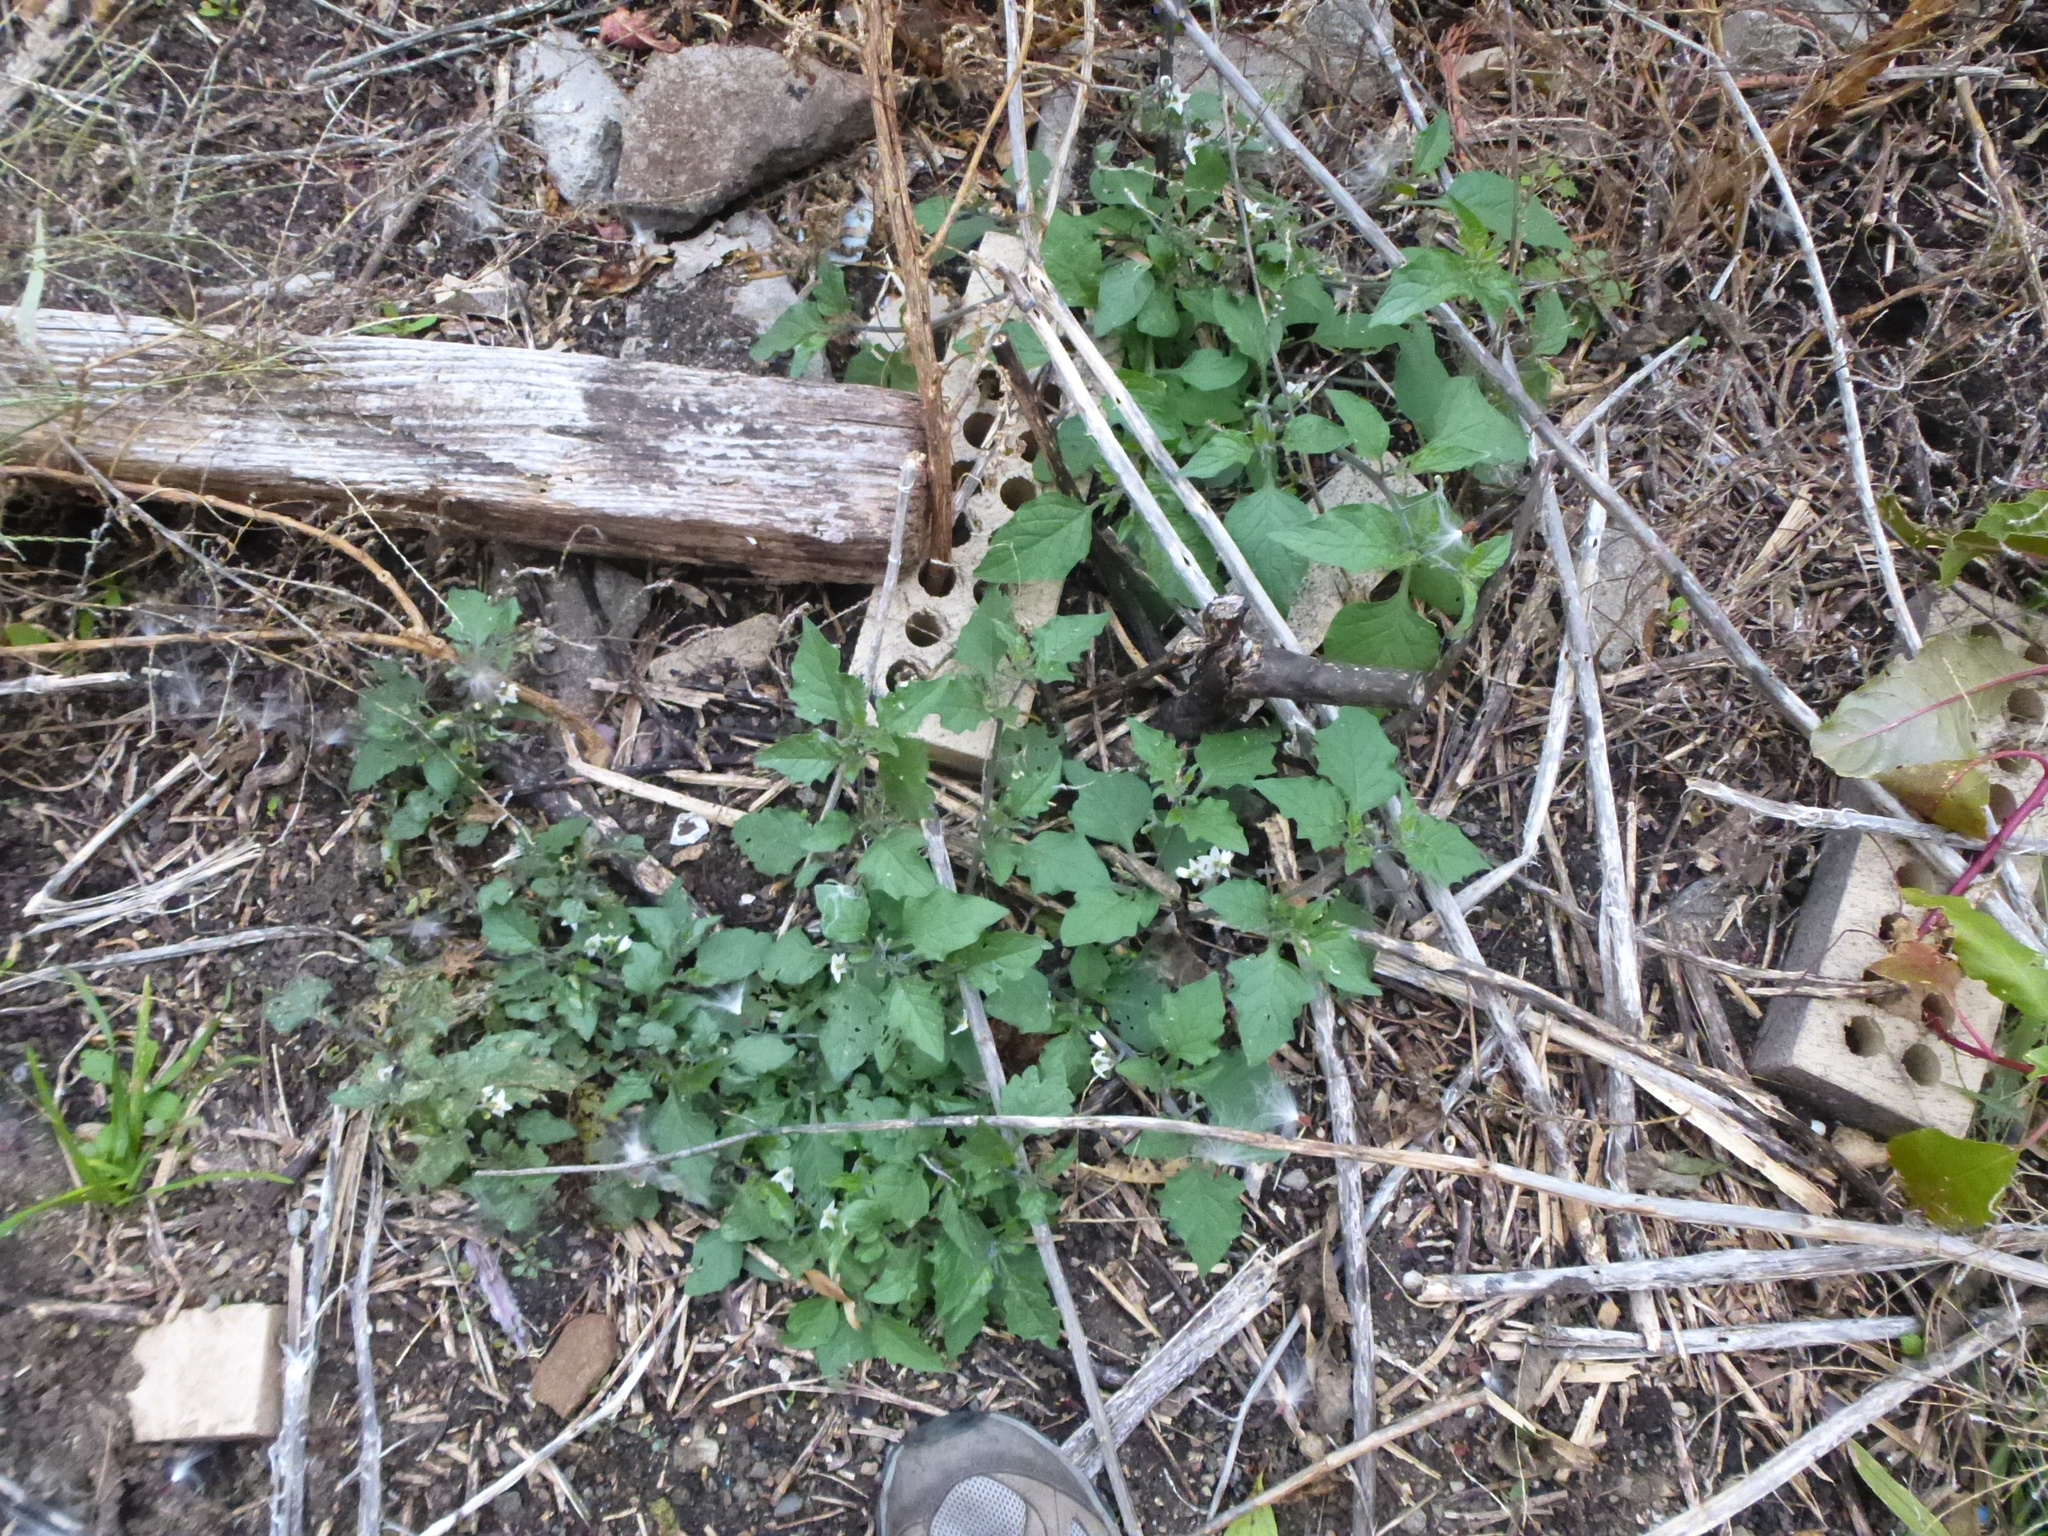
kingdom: Plantae
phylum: Tracheophyta
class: Magnoliopsida
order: Solanales
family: Solanaceae
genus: Solanum
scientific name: Solanum nigrum
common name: Black nightshade
